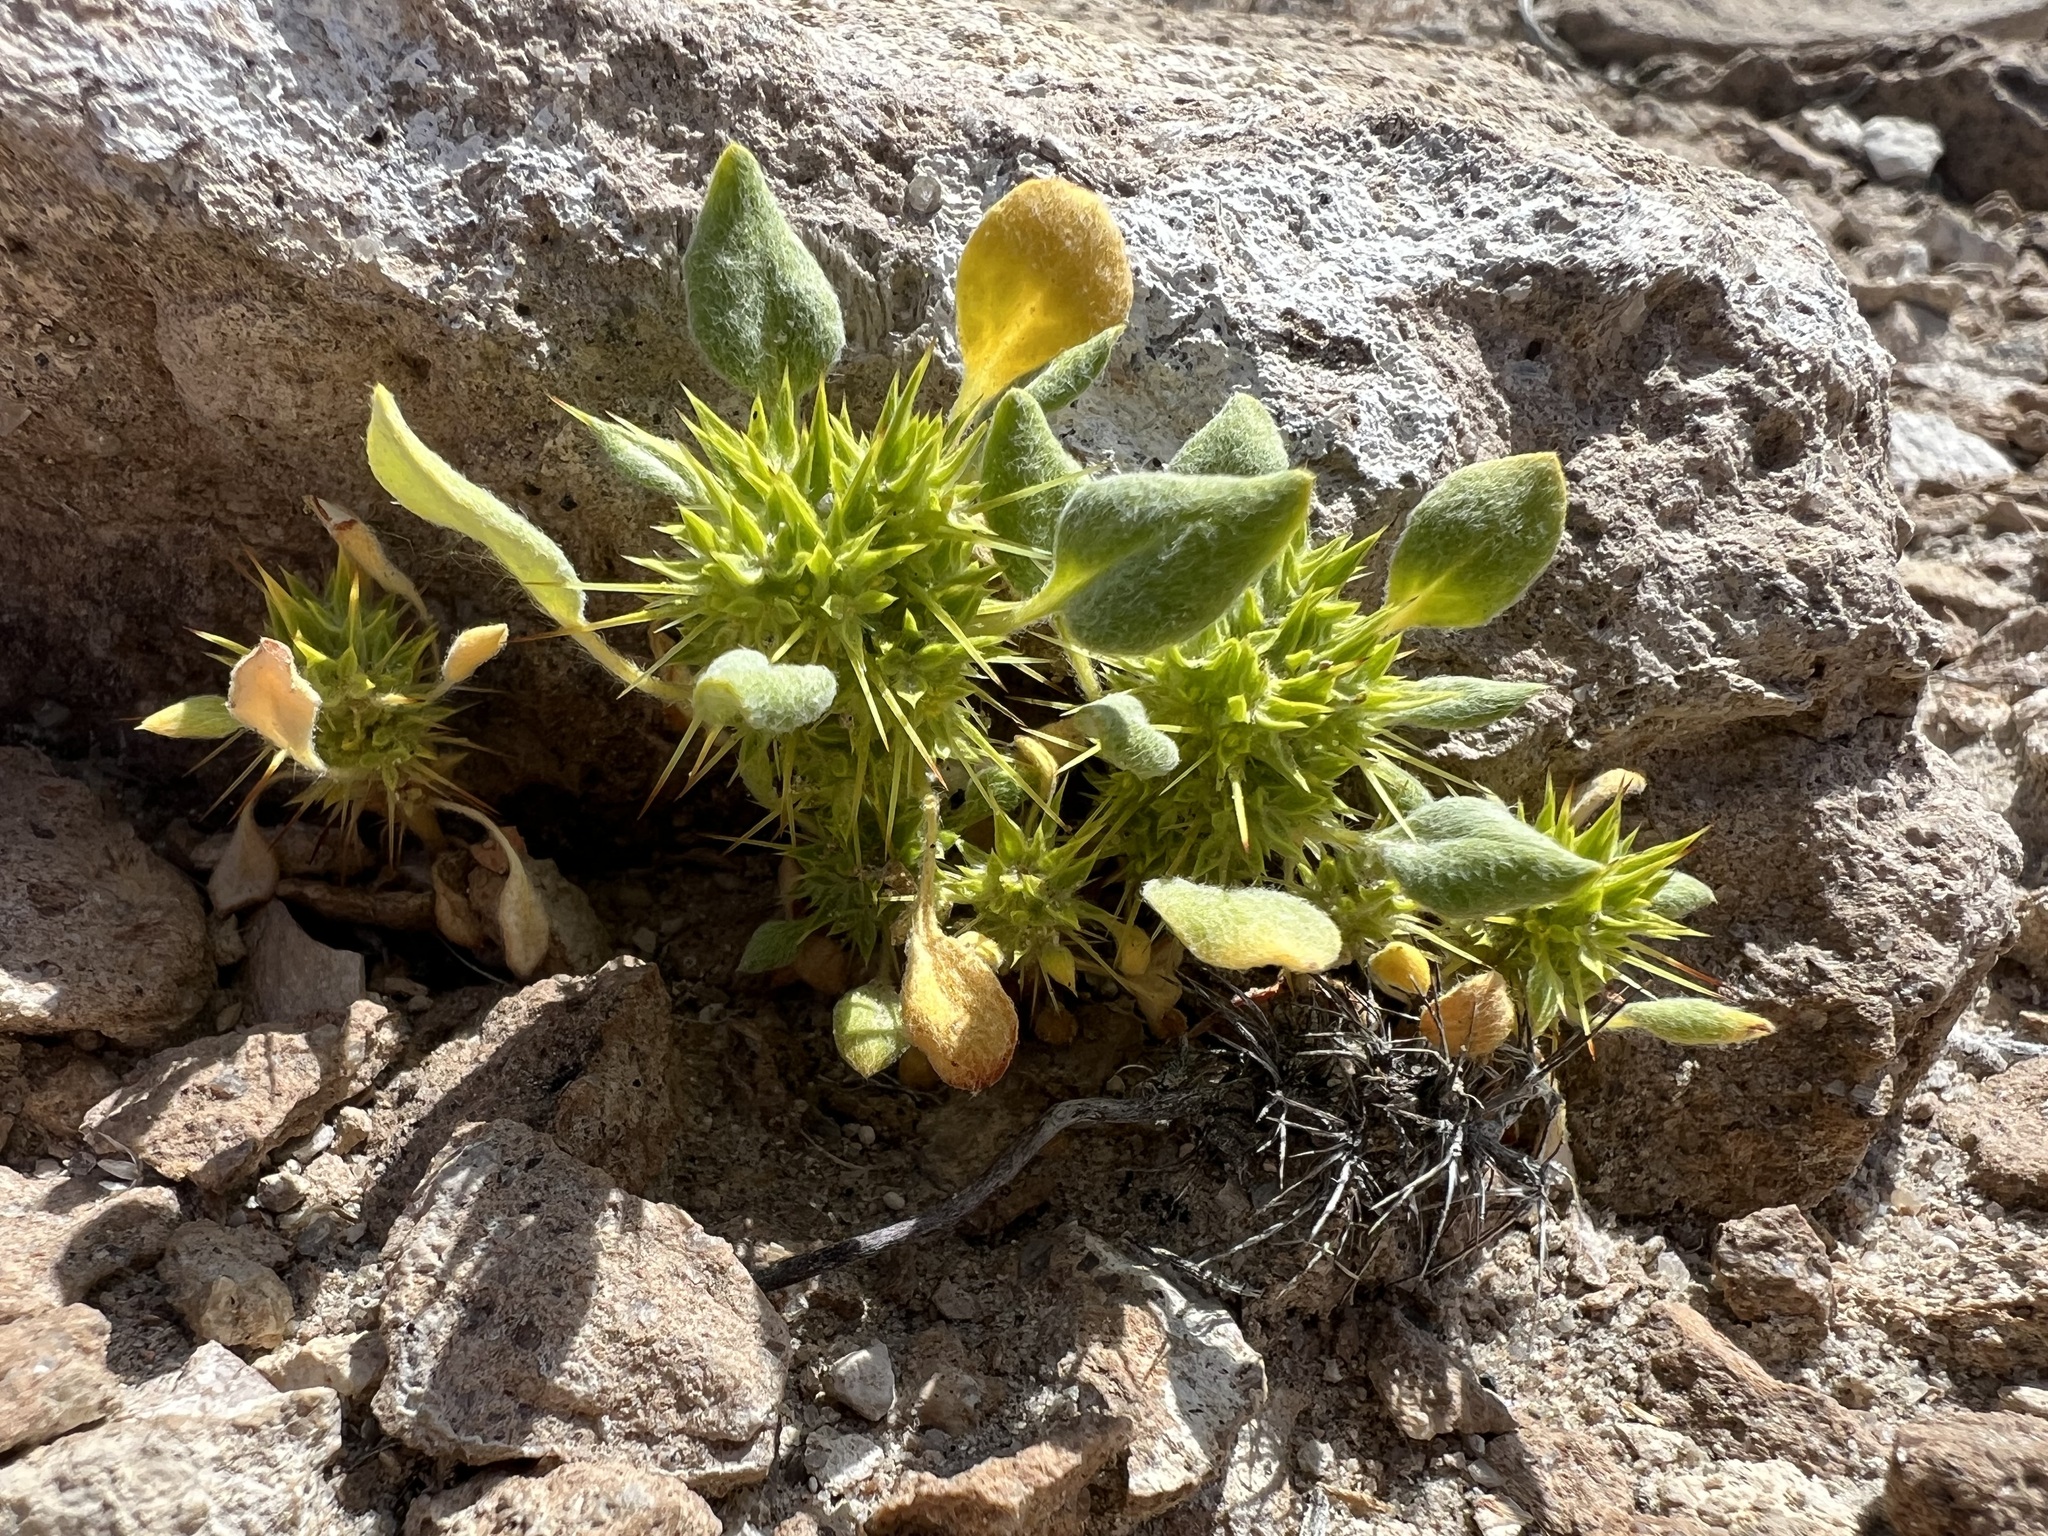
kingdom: Plantae
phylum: Tracheophyta
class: Magnoliopsida
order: Caryophyllales
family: Polygonaceae
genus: Chorizanthe
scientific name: Chorizanthe rigida
